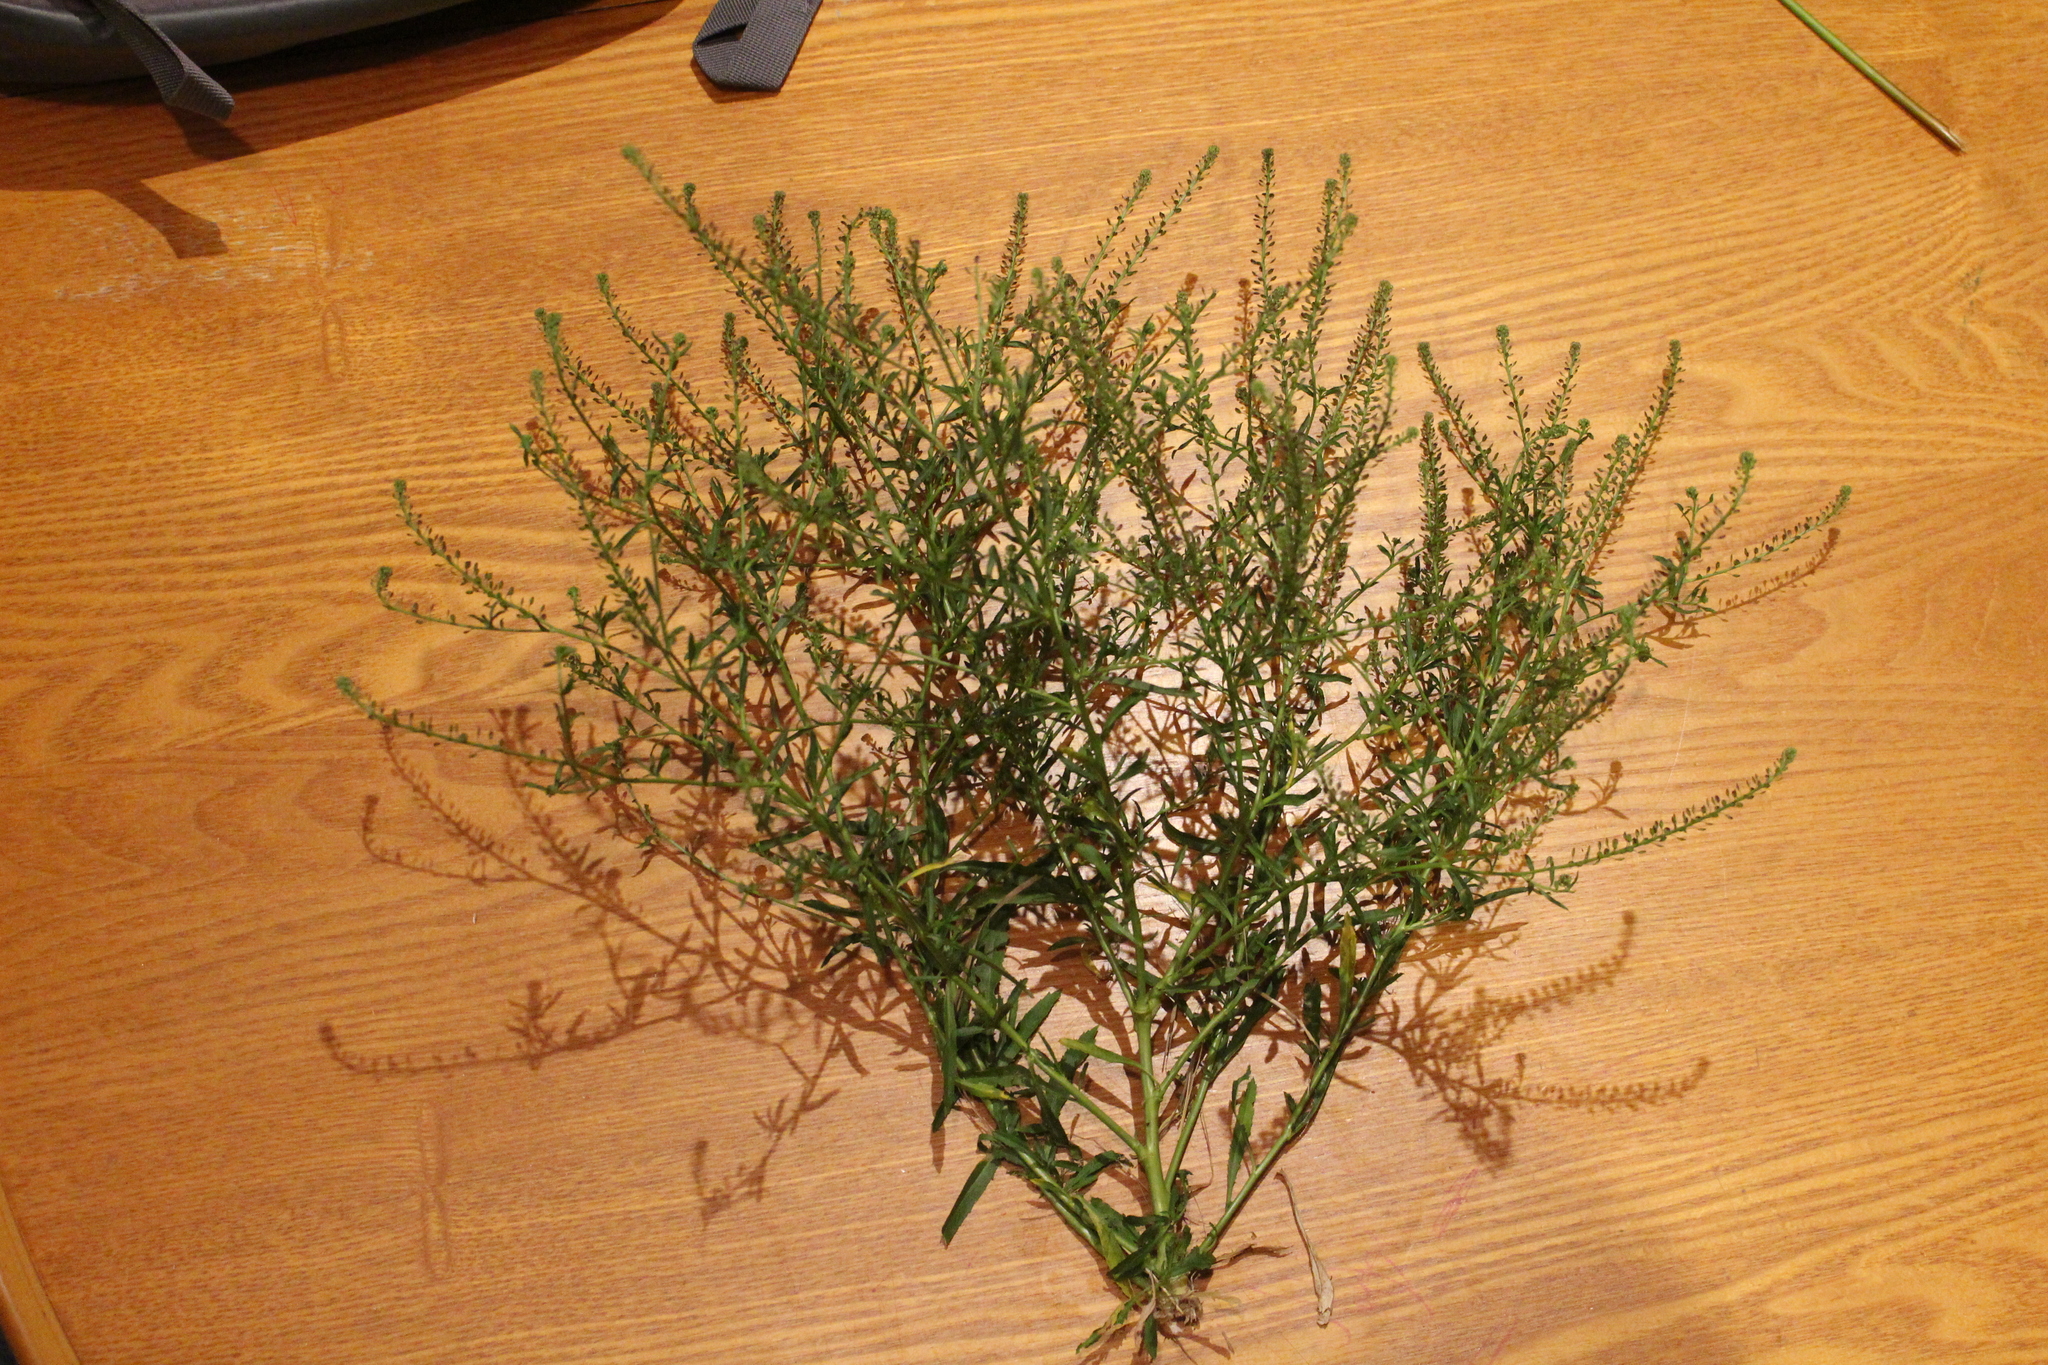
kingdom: Plantae
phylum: Tracheophyta
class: Magnoliopsida
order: Brassicales
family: Brassicaceae
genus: Lepidium
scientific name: Lepidium africanum
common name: African pepperwort
